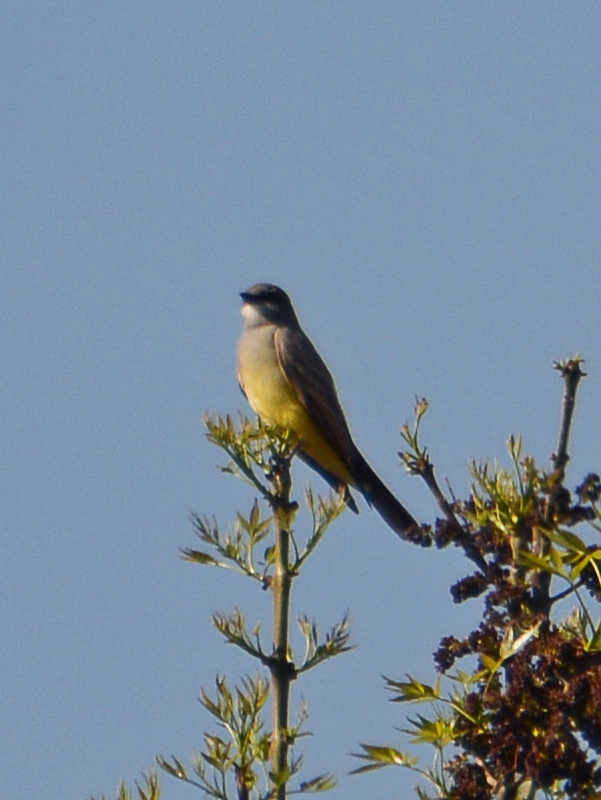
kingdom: Animalia
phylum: Chordata
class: Aves
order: Passeriformes
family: Tyrannidae
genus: Tyrannus
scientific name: Tyrannus vociferans
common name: Cassin's kingbird
